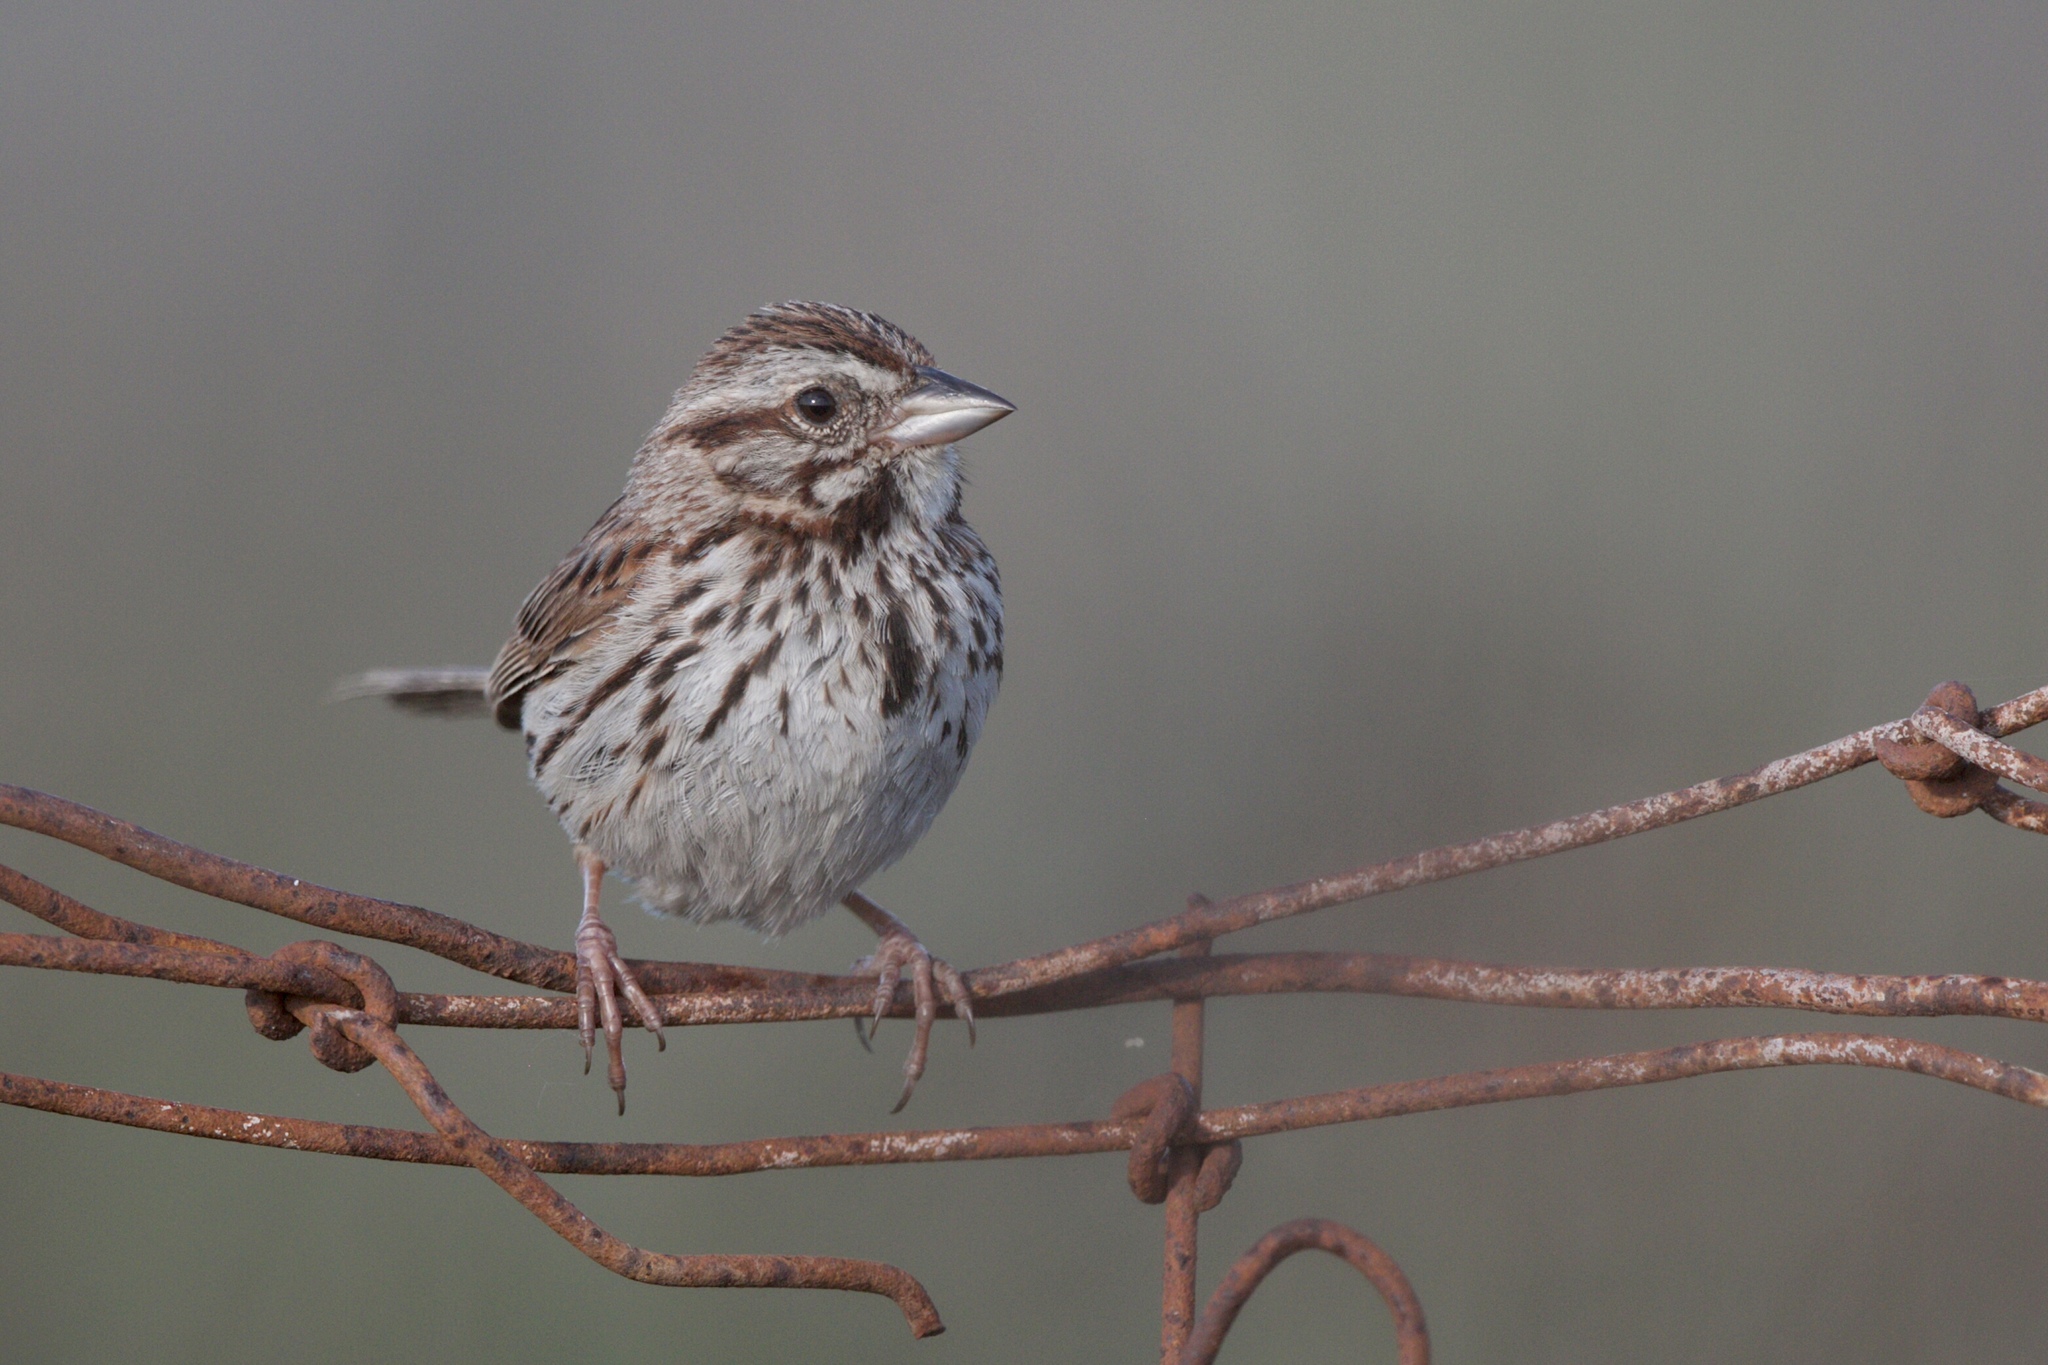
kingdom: Animalia
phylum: Chordata
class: Aves
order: Passeriformes
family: Passerellidae
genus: Melospiza
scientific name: Melospiza melodia
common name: Song sparrow
